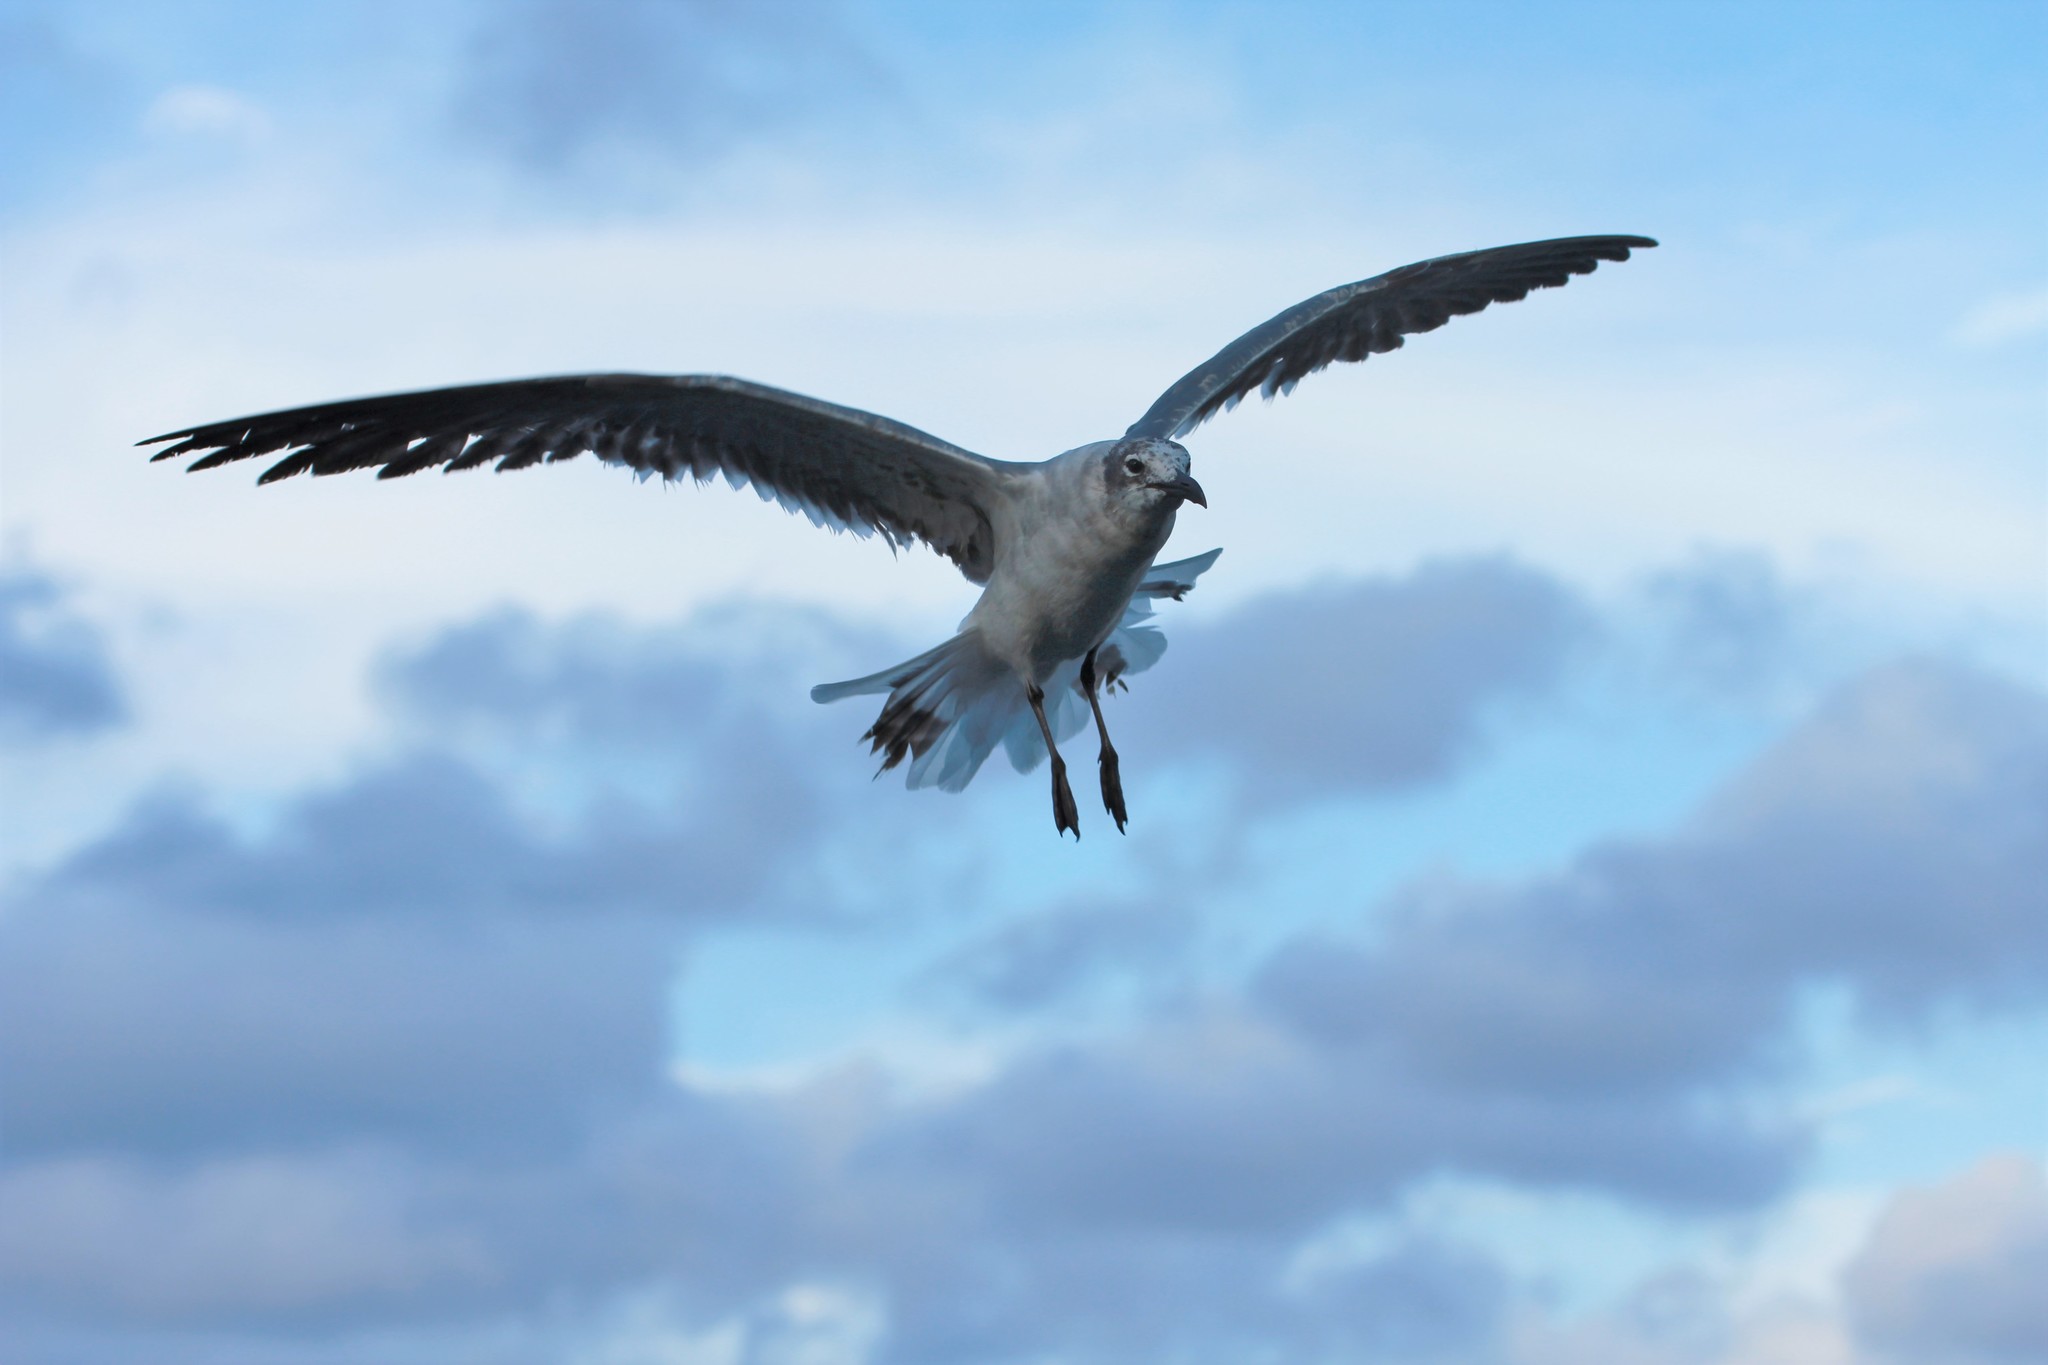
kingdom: Animalia
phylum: Chordata
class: Aves
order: Charadriiformes
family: Laridae
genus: Leucophaeus
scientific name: Leucophaeus atricilla
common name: Laughing gull
